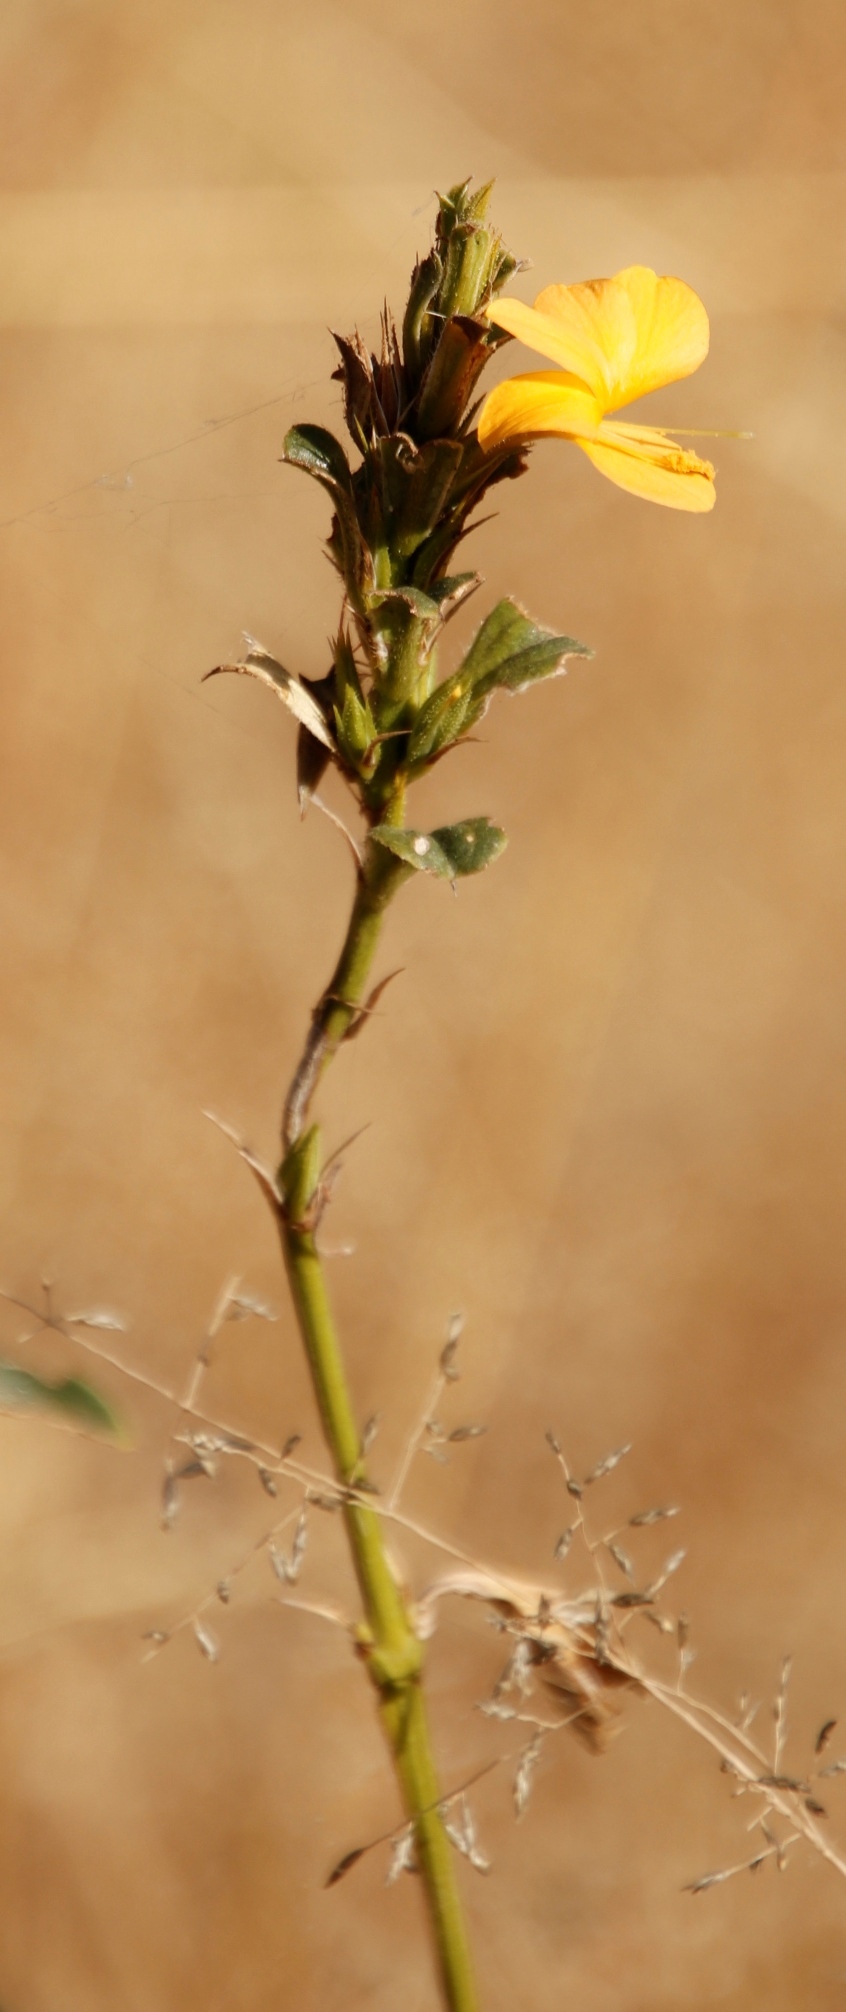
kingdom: Plantae
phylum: Tracheophyta
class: Magnoliopsida
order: Lamiales
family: Acanthaceae
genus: Barleria
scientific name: Barleria senensis
